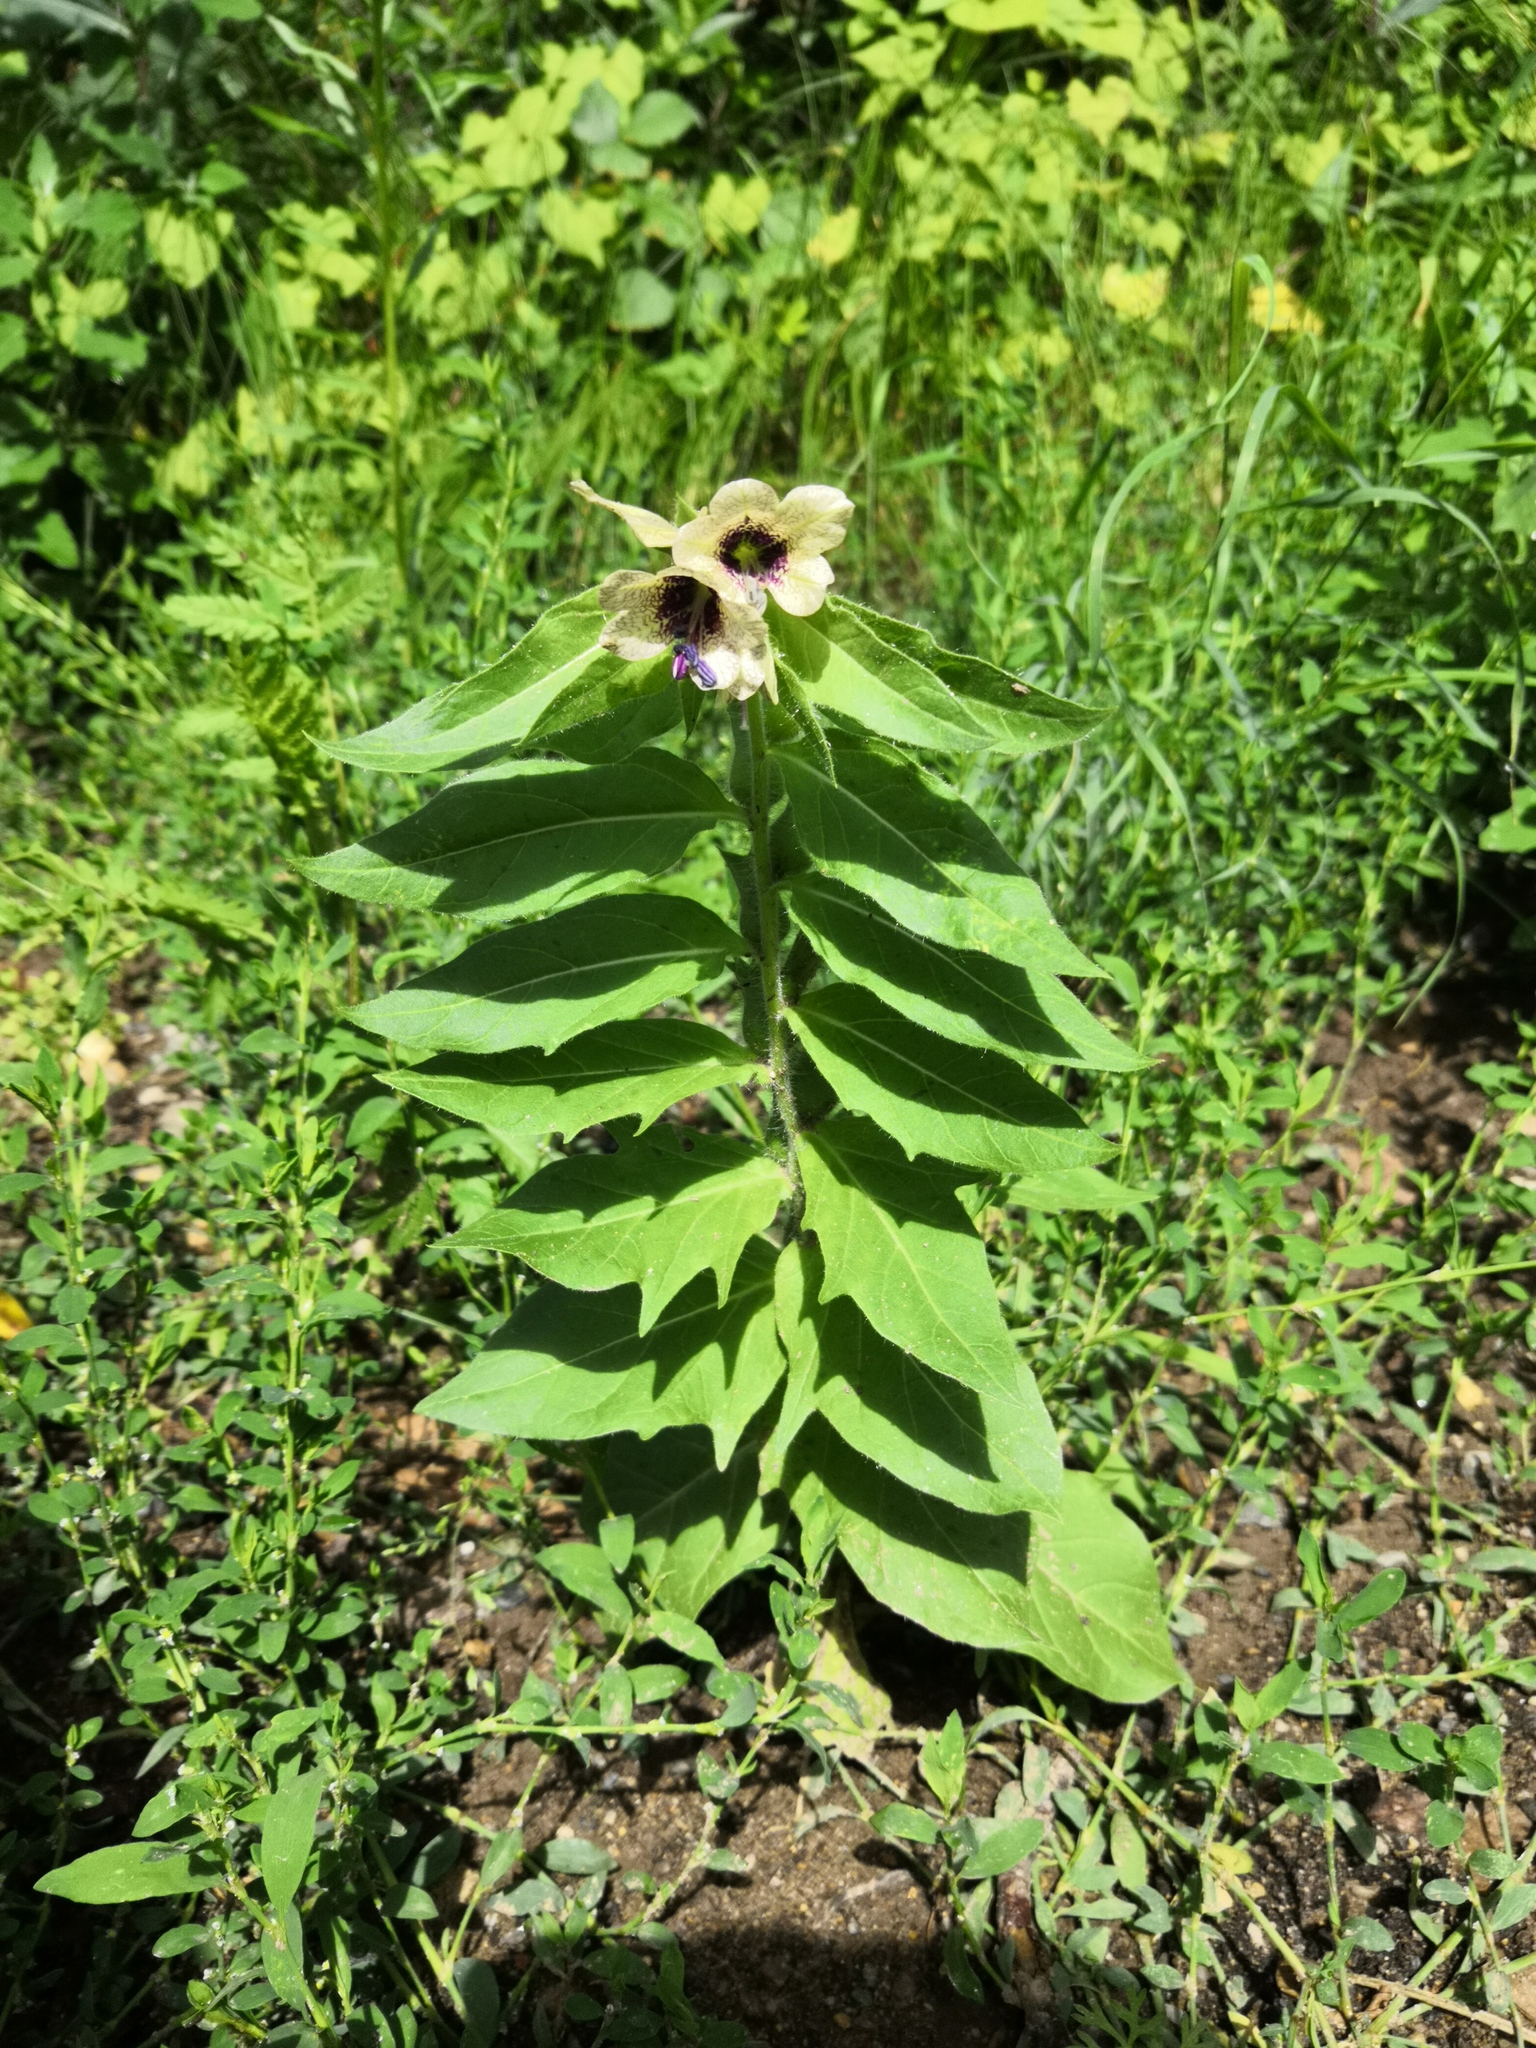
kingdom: Plantae
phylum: Tracheophyta
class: Magnoliopsida
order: Solanales
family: Solanaceae
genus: Hyoscyamus
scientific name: Hyoscyamus niger
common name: Henbane
